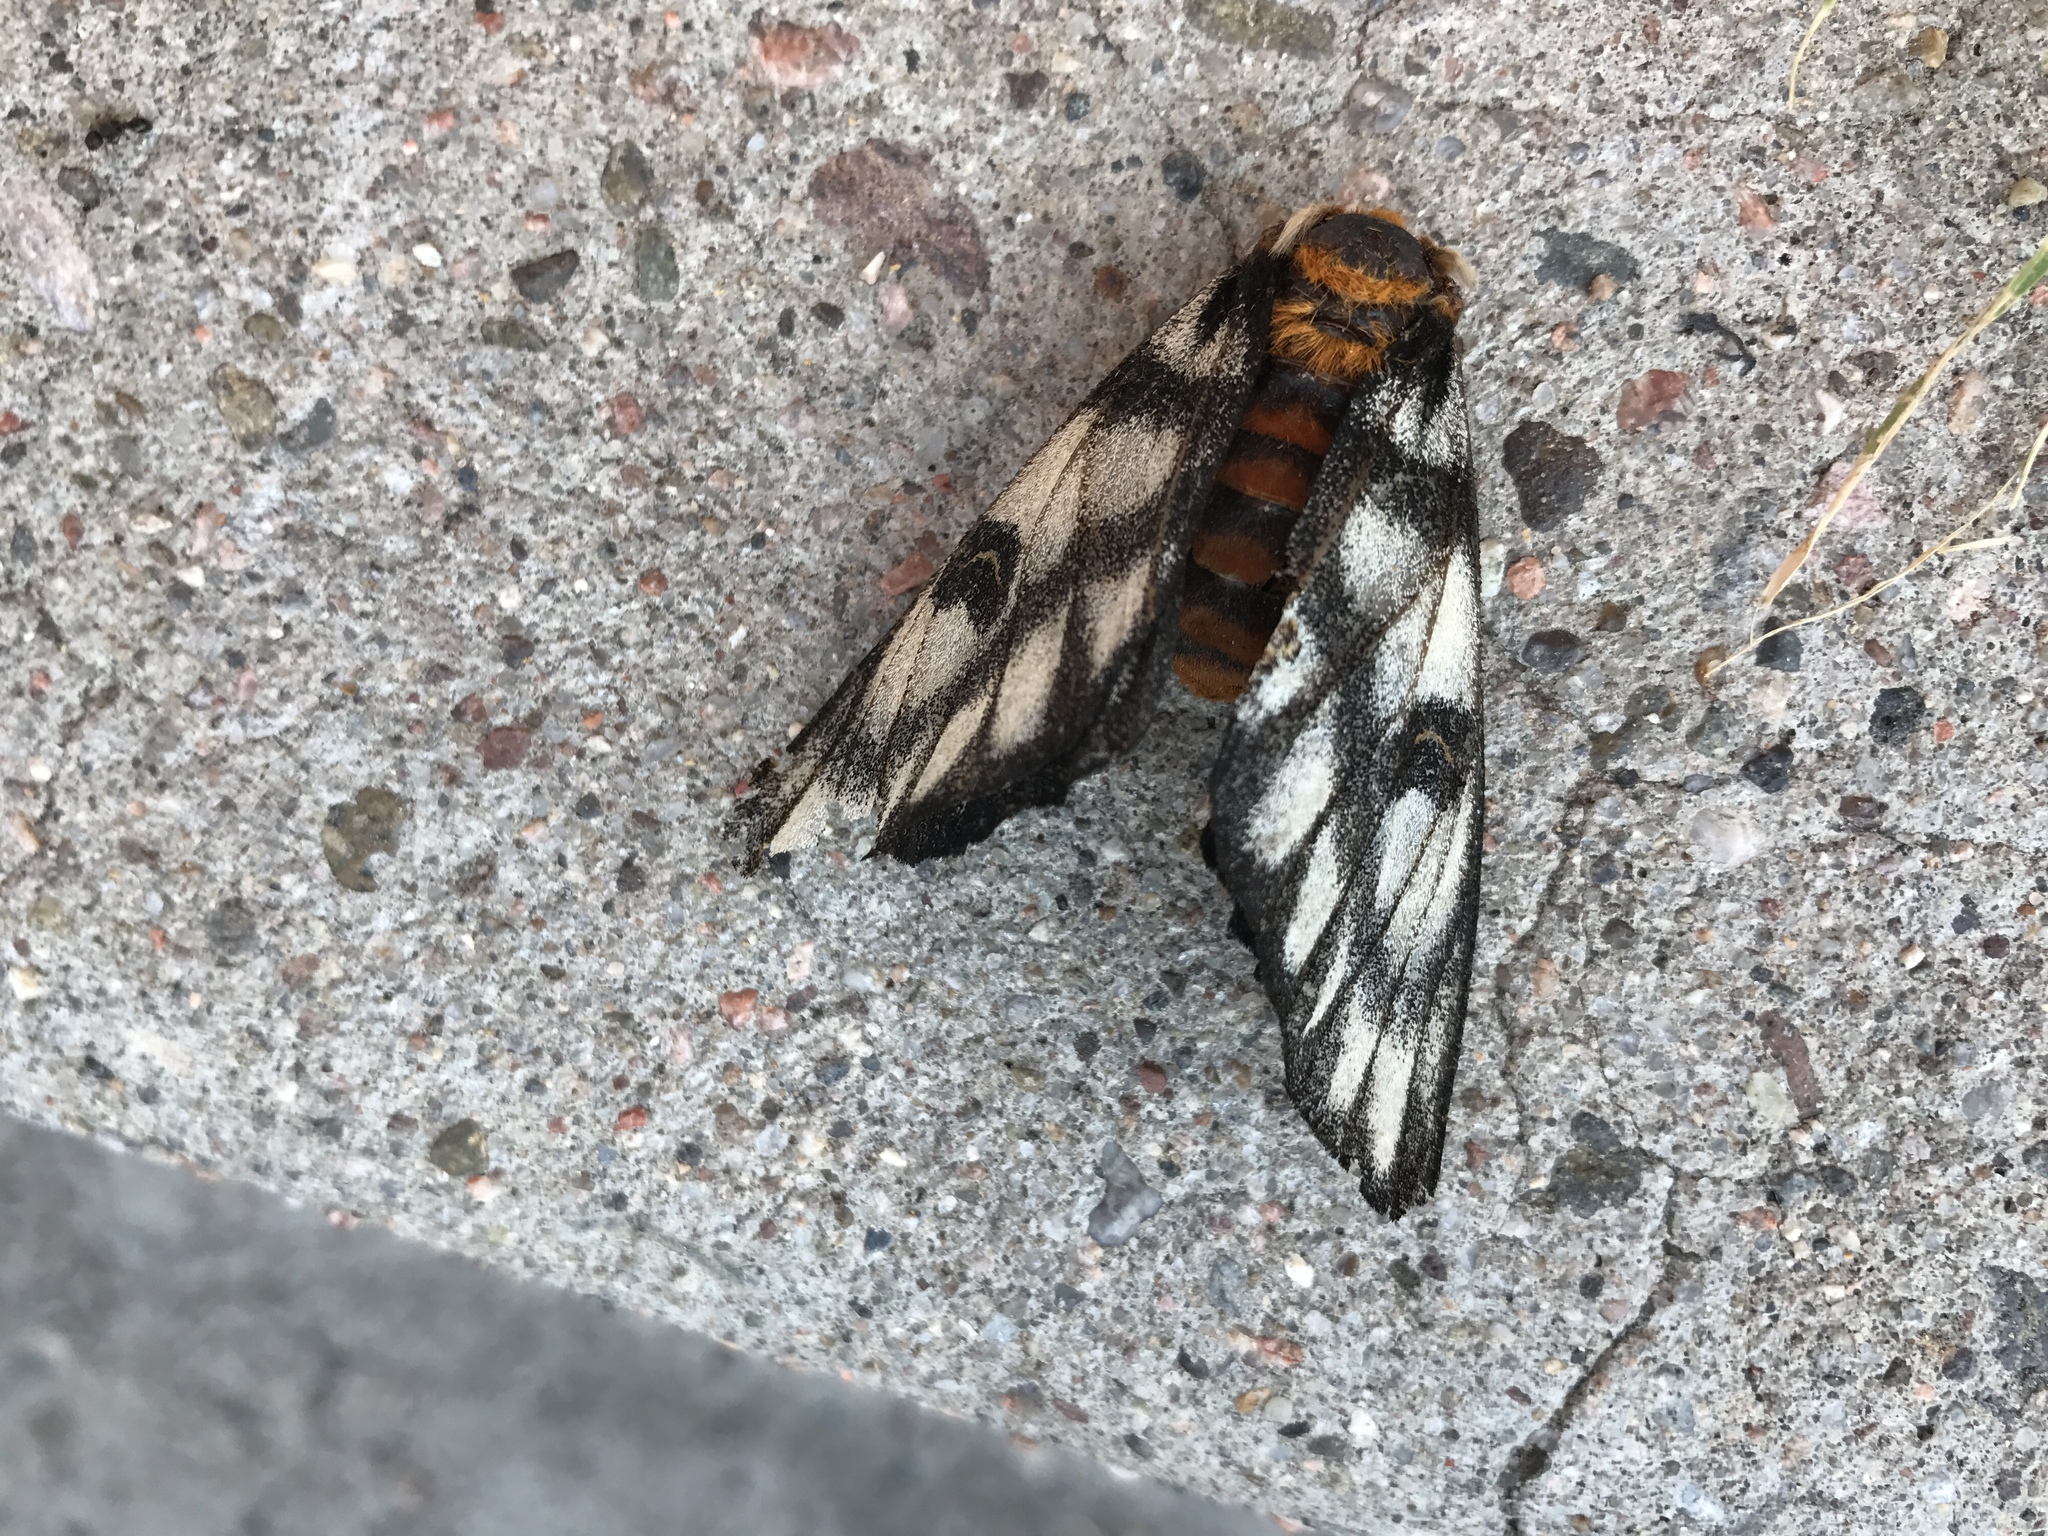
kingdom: Animalia
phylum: Arthropoda
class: Insecta
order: Lepidoptera
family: Saturniidae
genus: Hemileuca
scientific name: Hemileuca hera
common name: Hera sheepmoth
